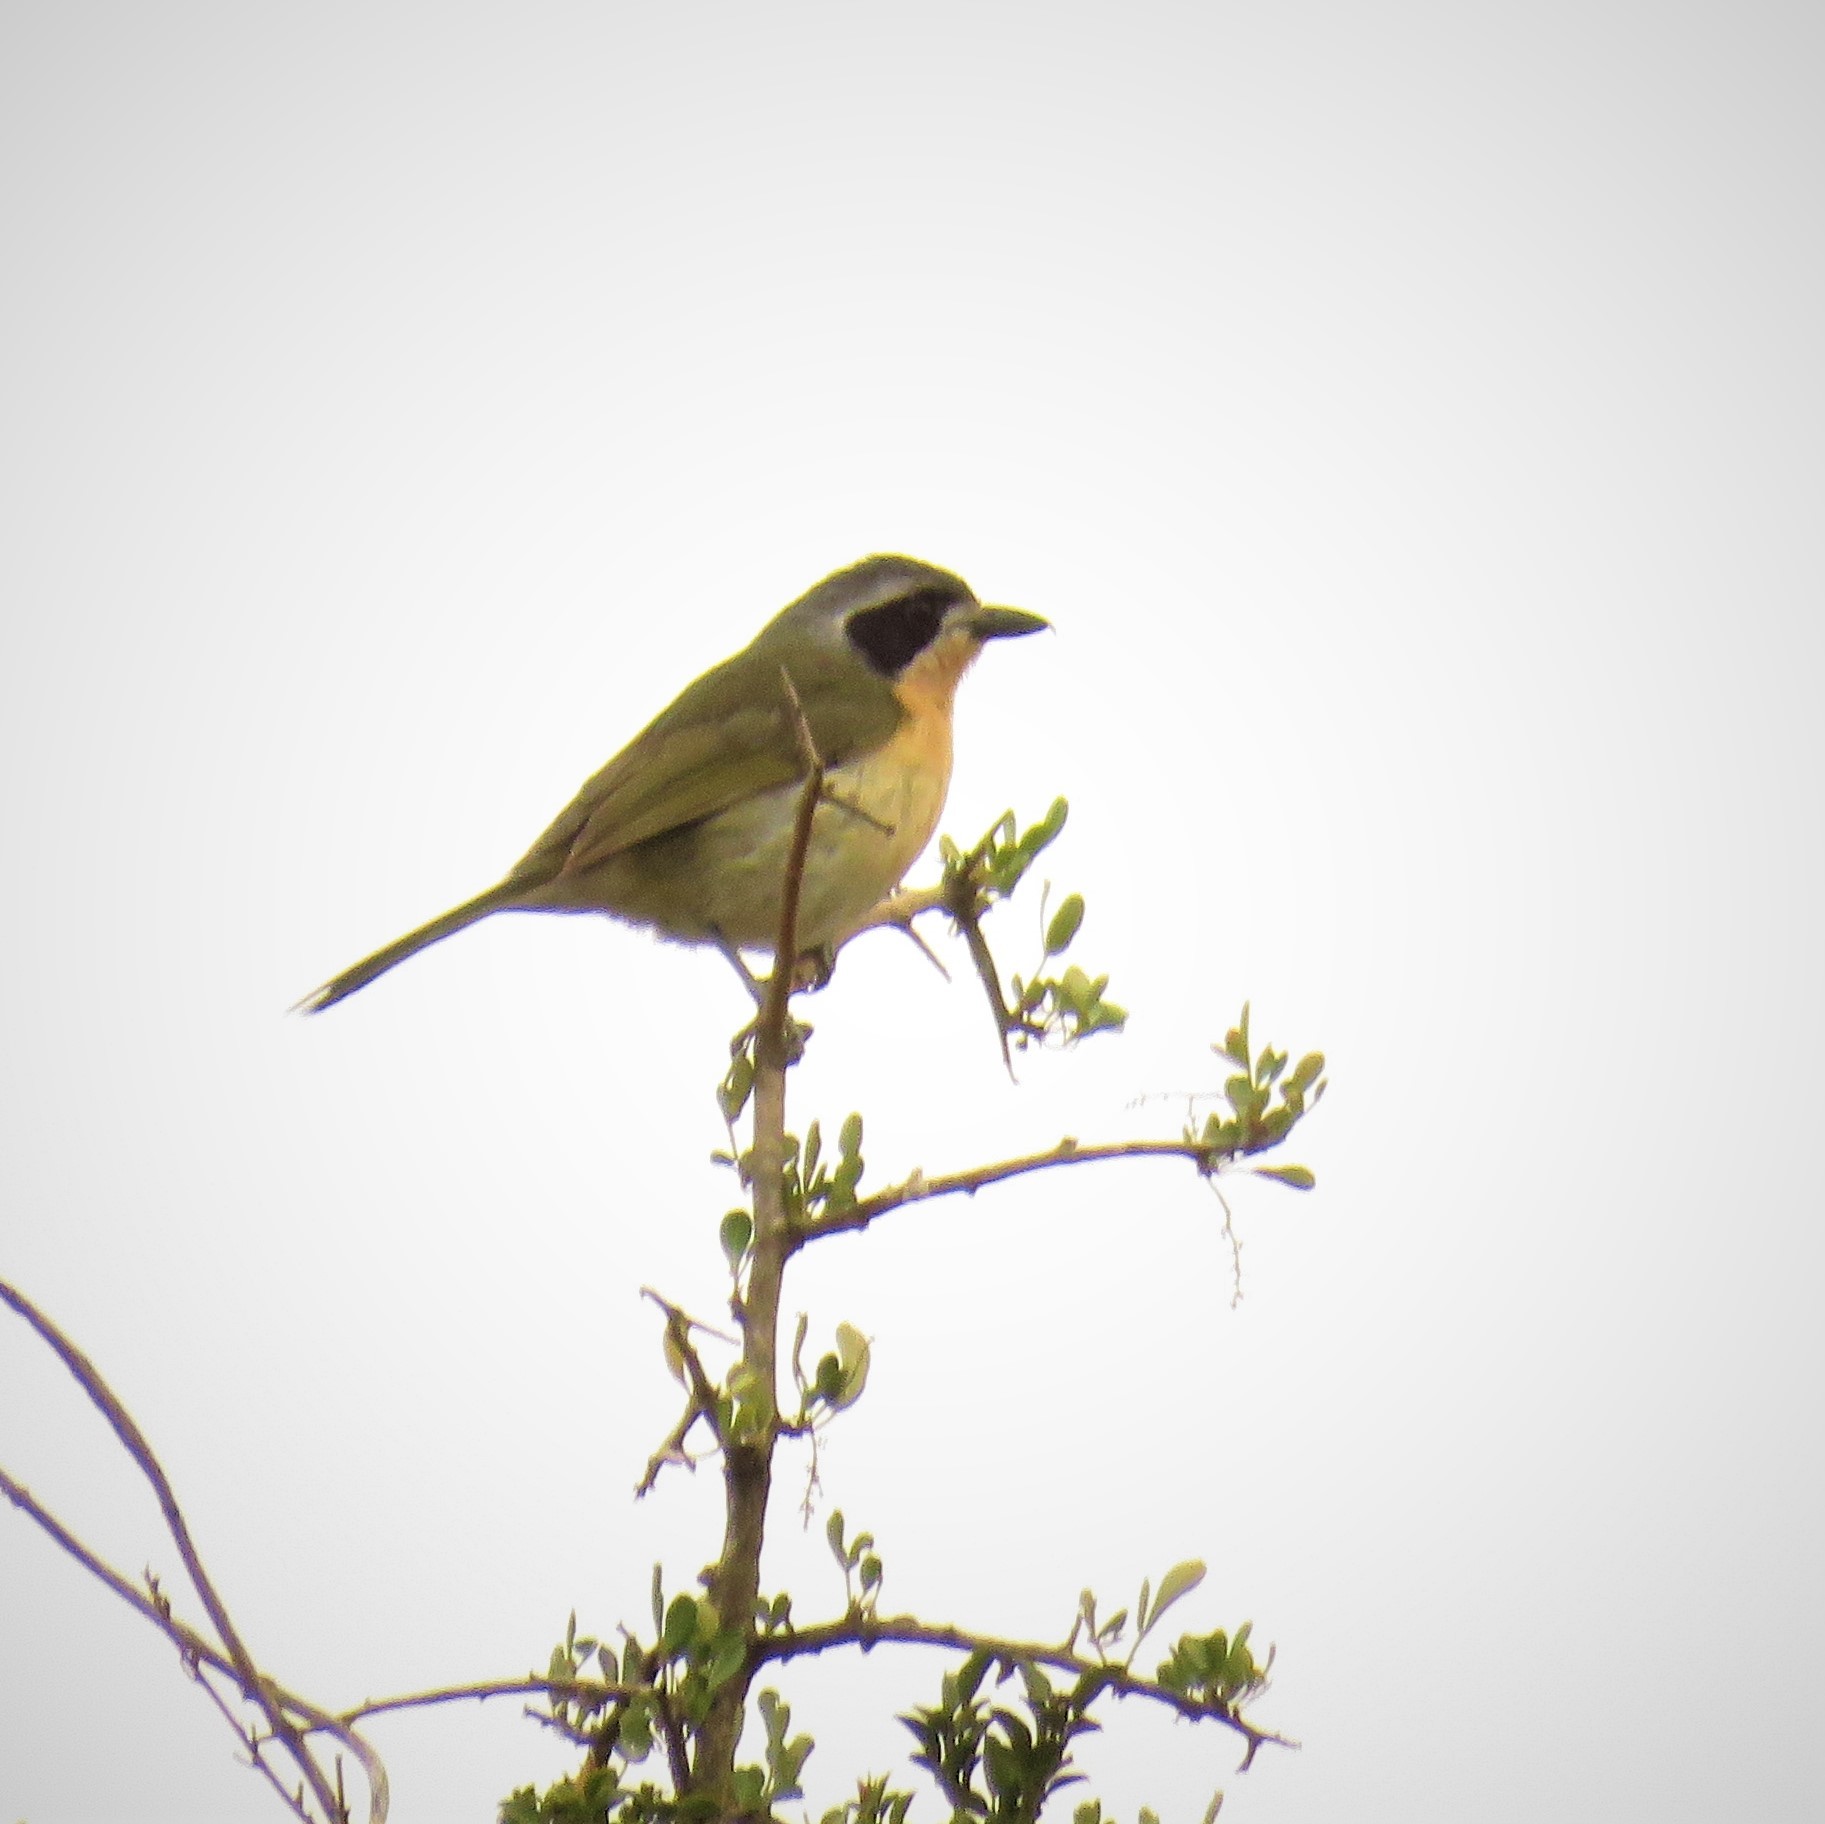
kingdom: Animalia
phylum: Chordata
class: Aves
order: Passeriformes
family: Malaconotidae
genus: Chlorophoneus
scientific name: Chlorophoneus olivaceus
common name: Olive bushshrike
